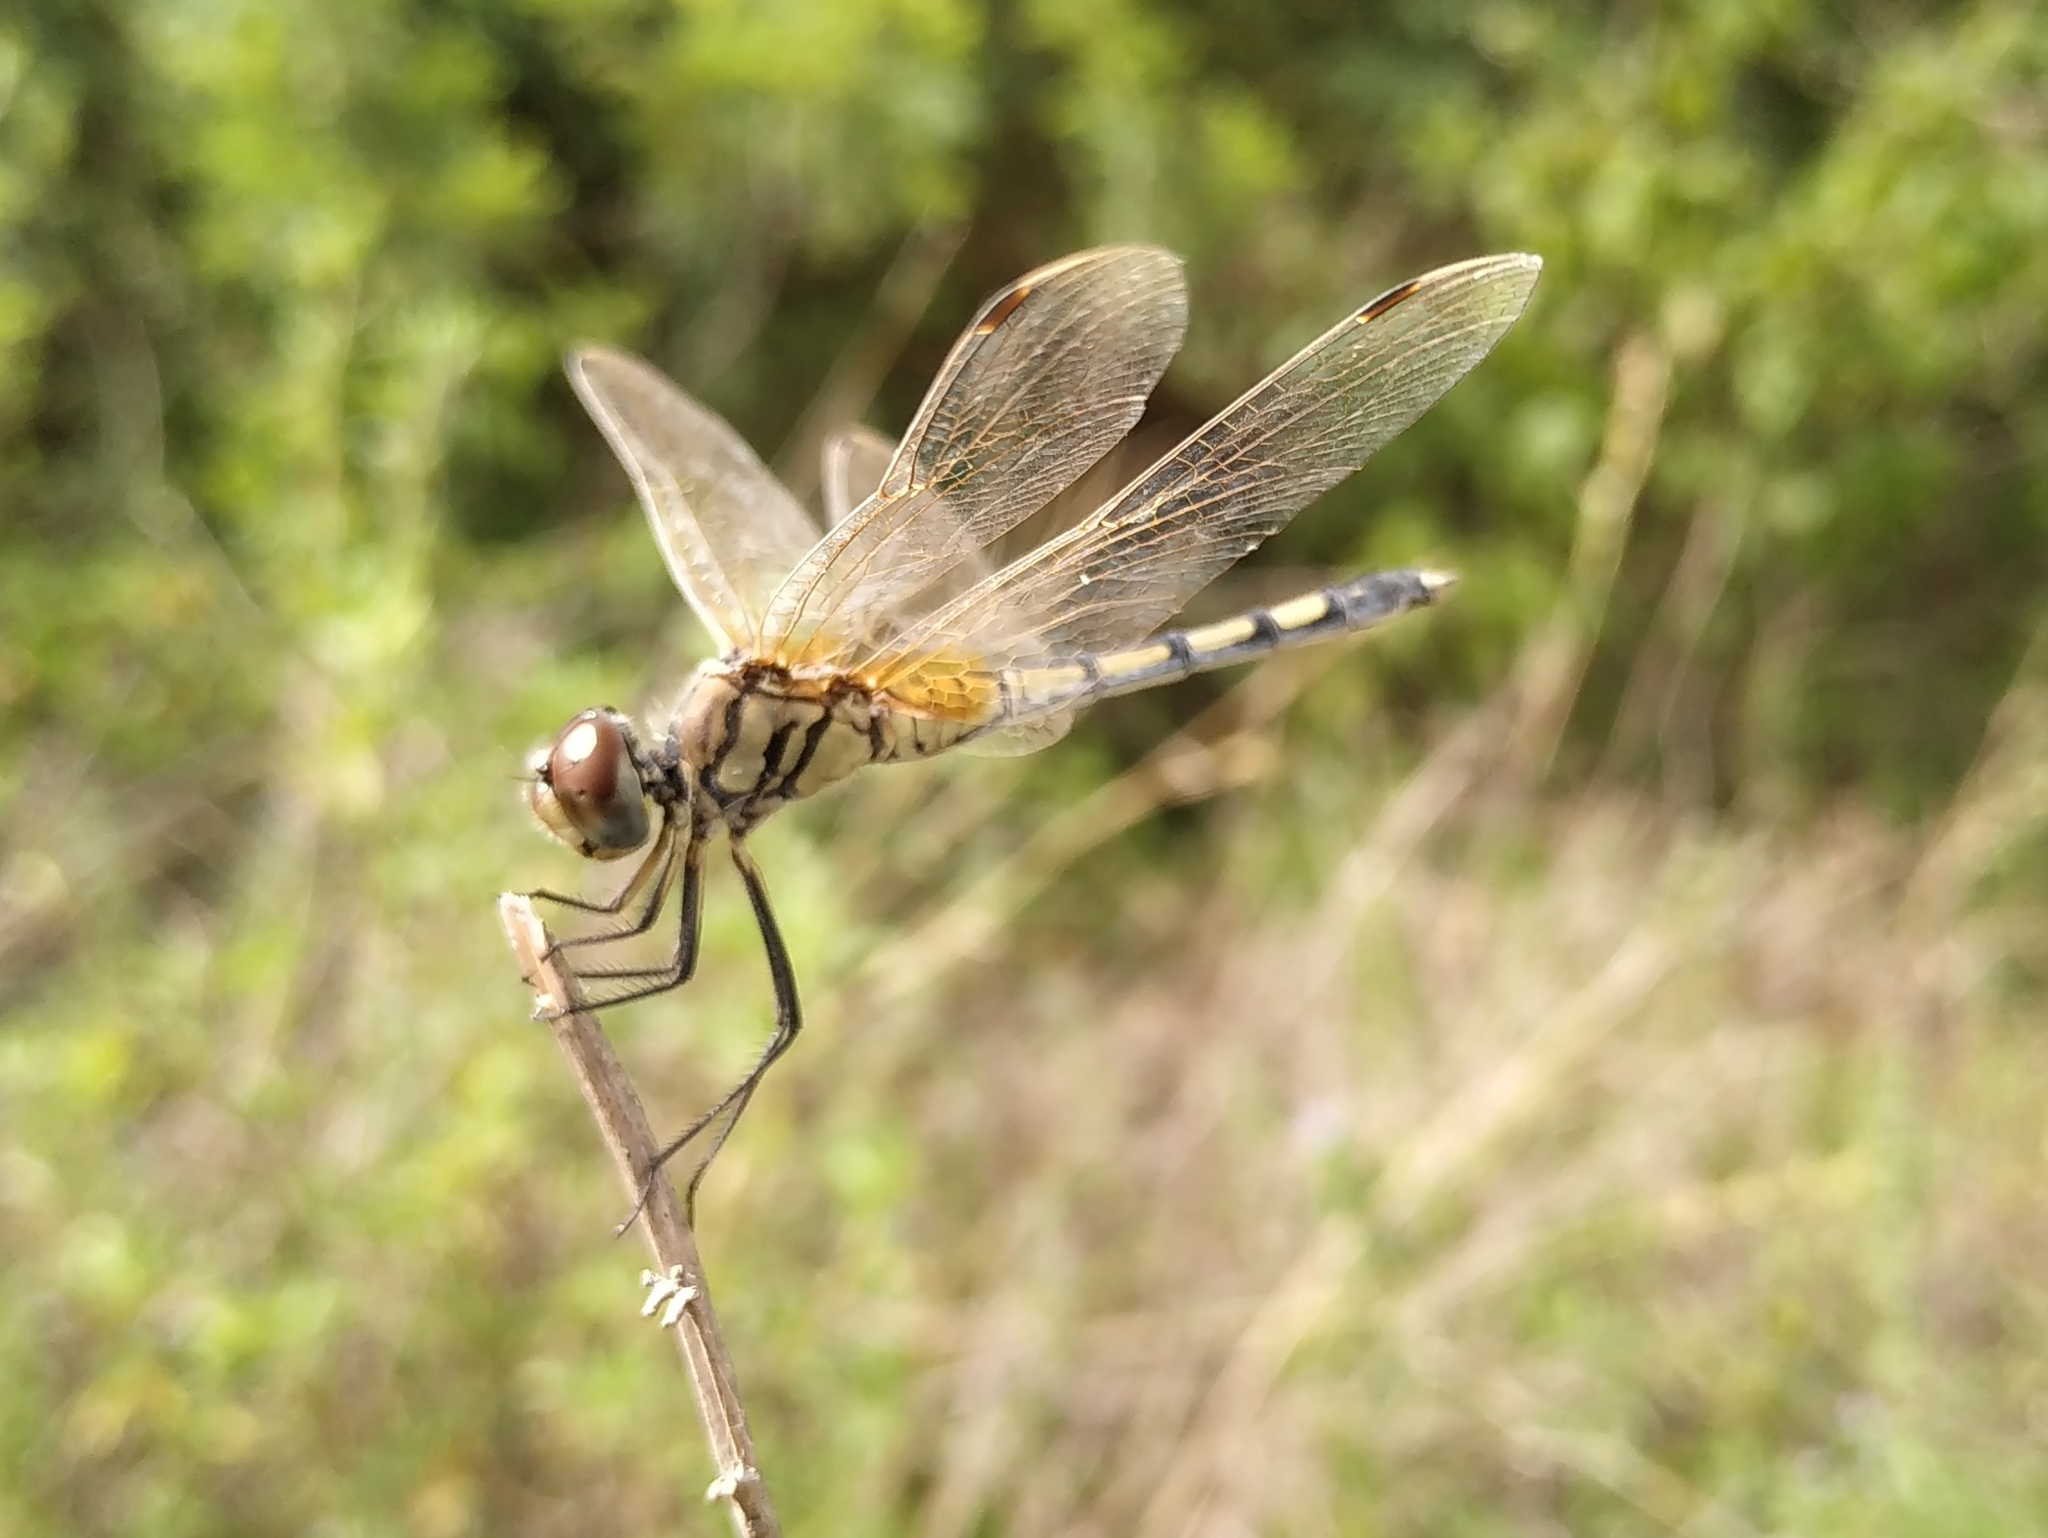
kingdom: Animalia
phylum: Arthropoda
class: Insecta
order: Odonata
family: Libellulidae
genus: Trithemis
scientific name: Trithemis pallidinervis
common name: Dancing dropwing
